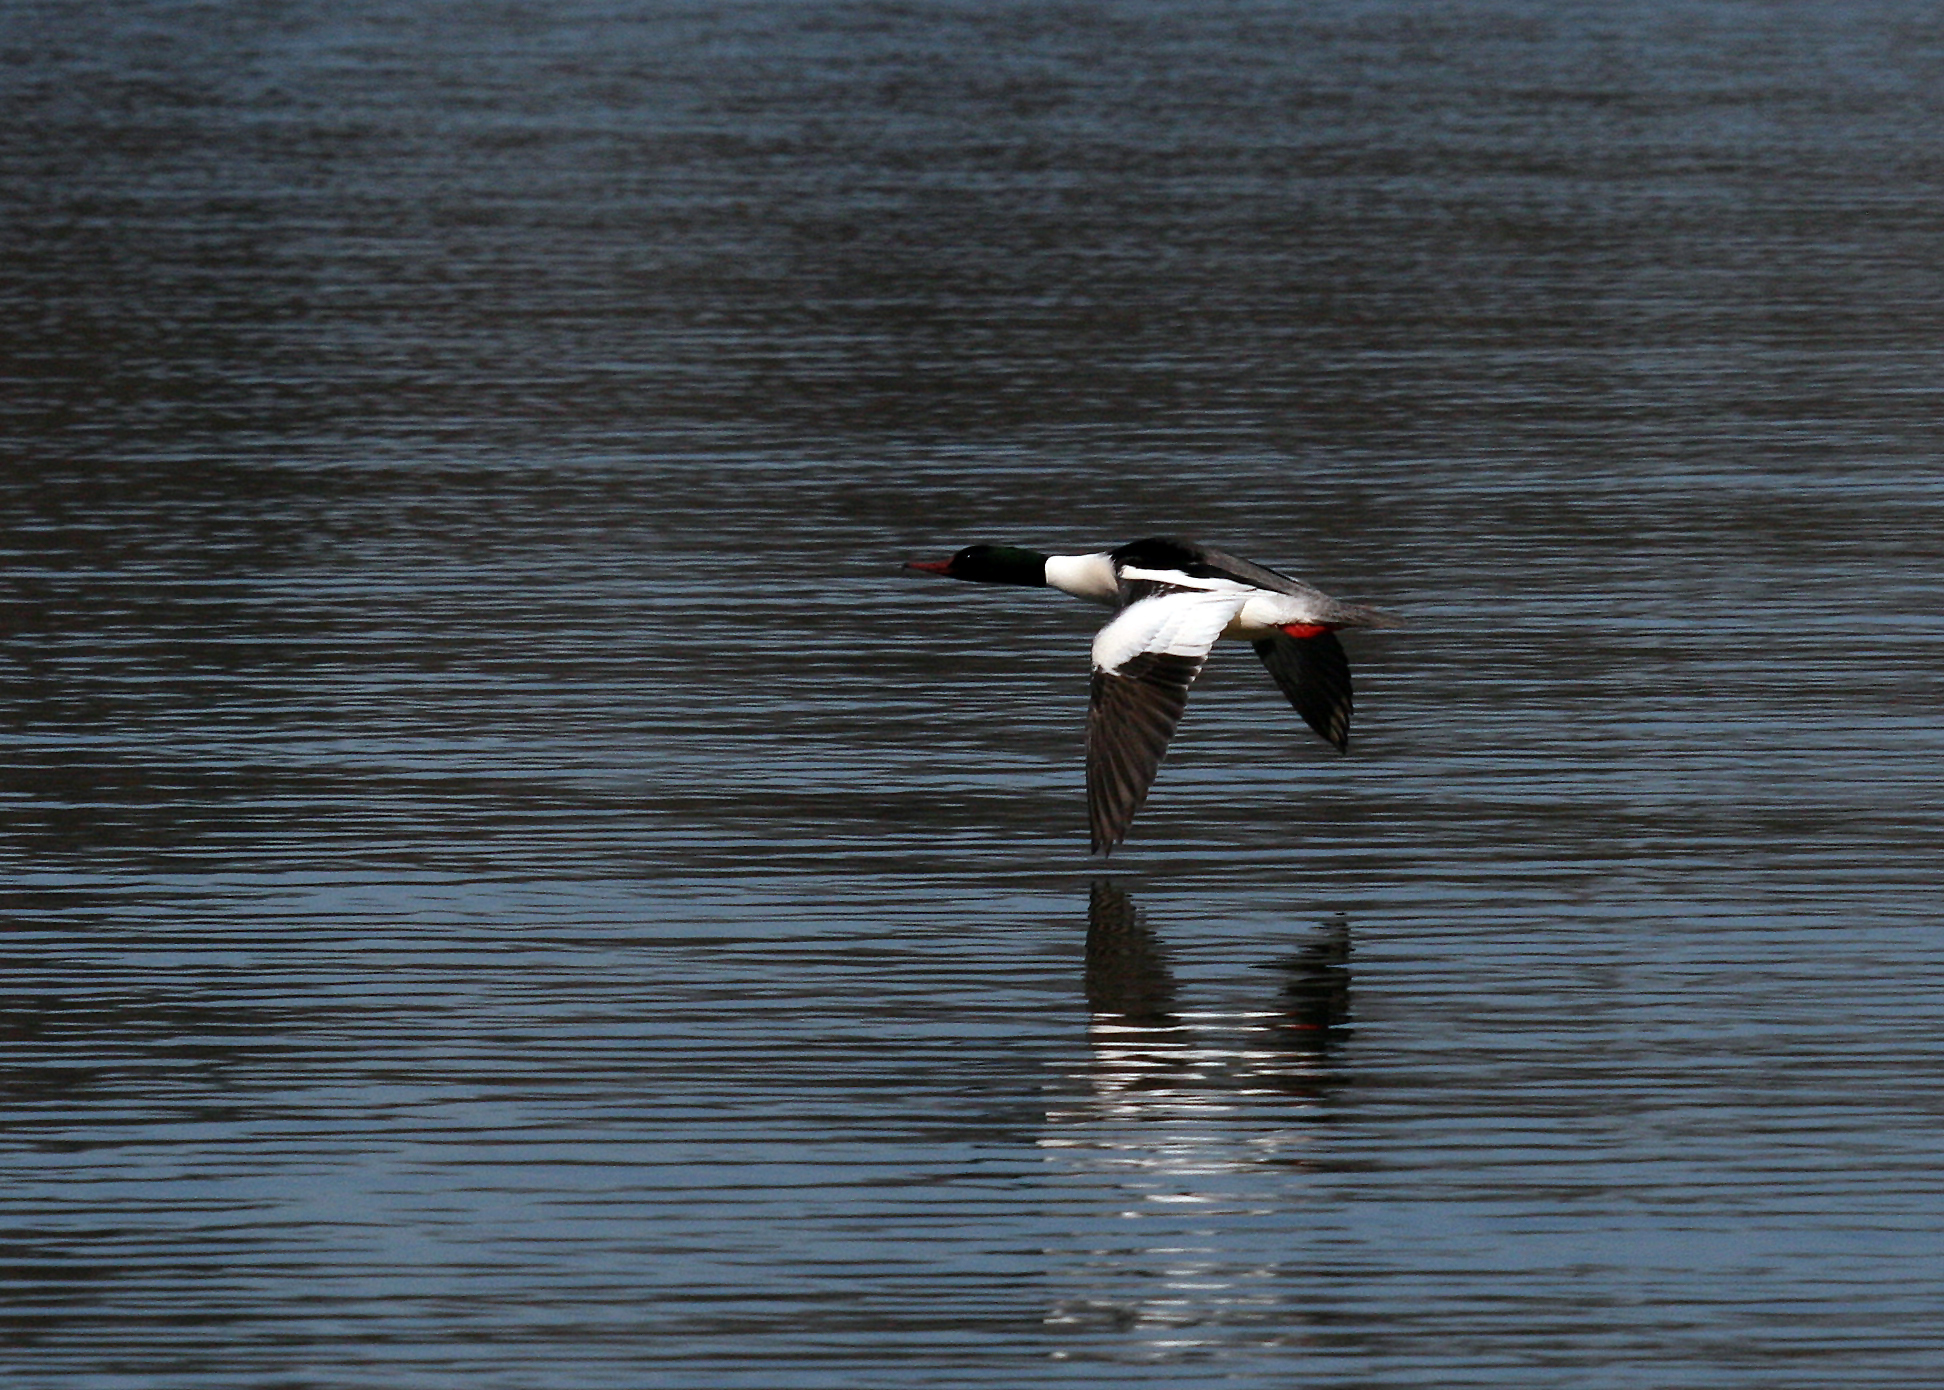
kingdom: Animalia
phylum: Chordata
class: Aves
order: Anseriformes
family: Anatidae
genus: Mergus
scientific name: Mergus merganser
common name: Common merganser
